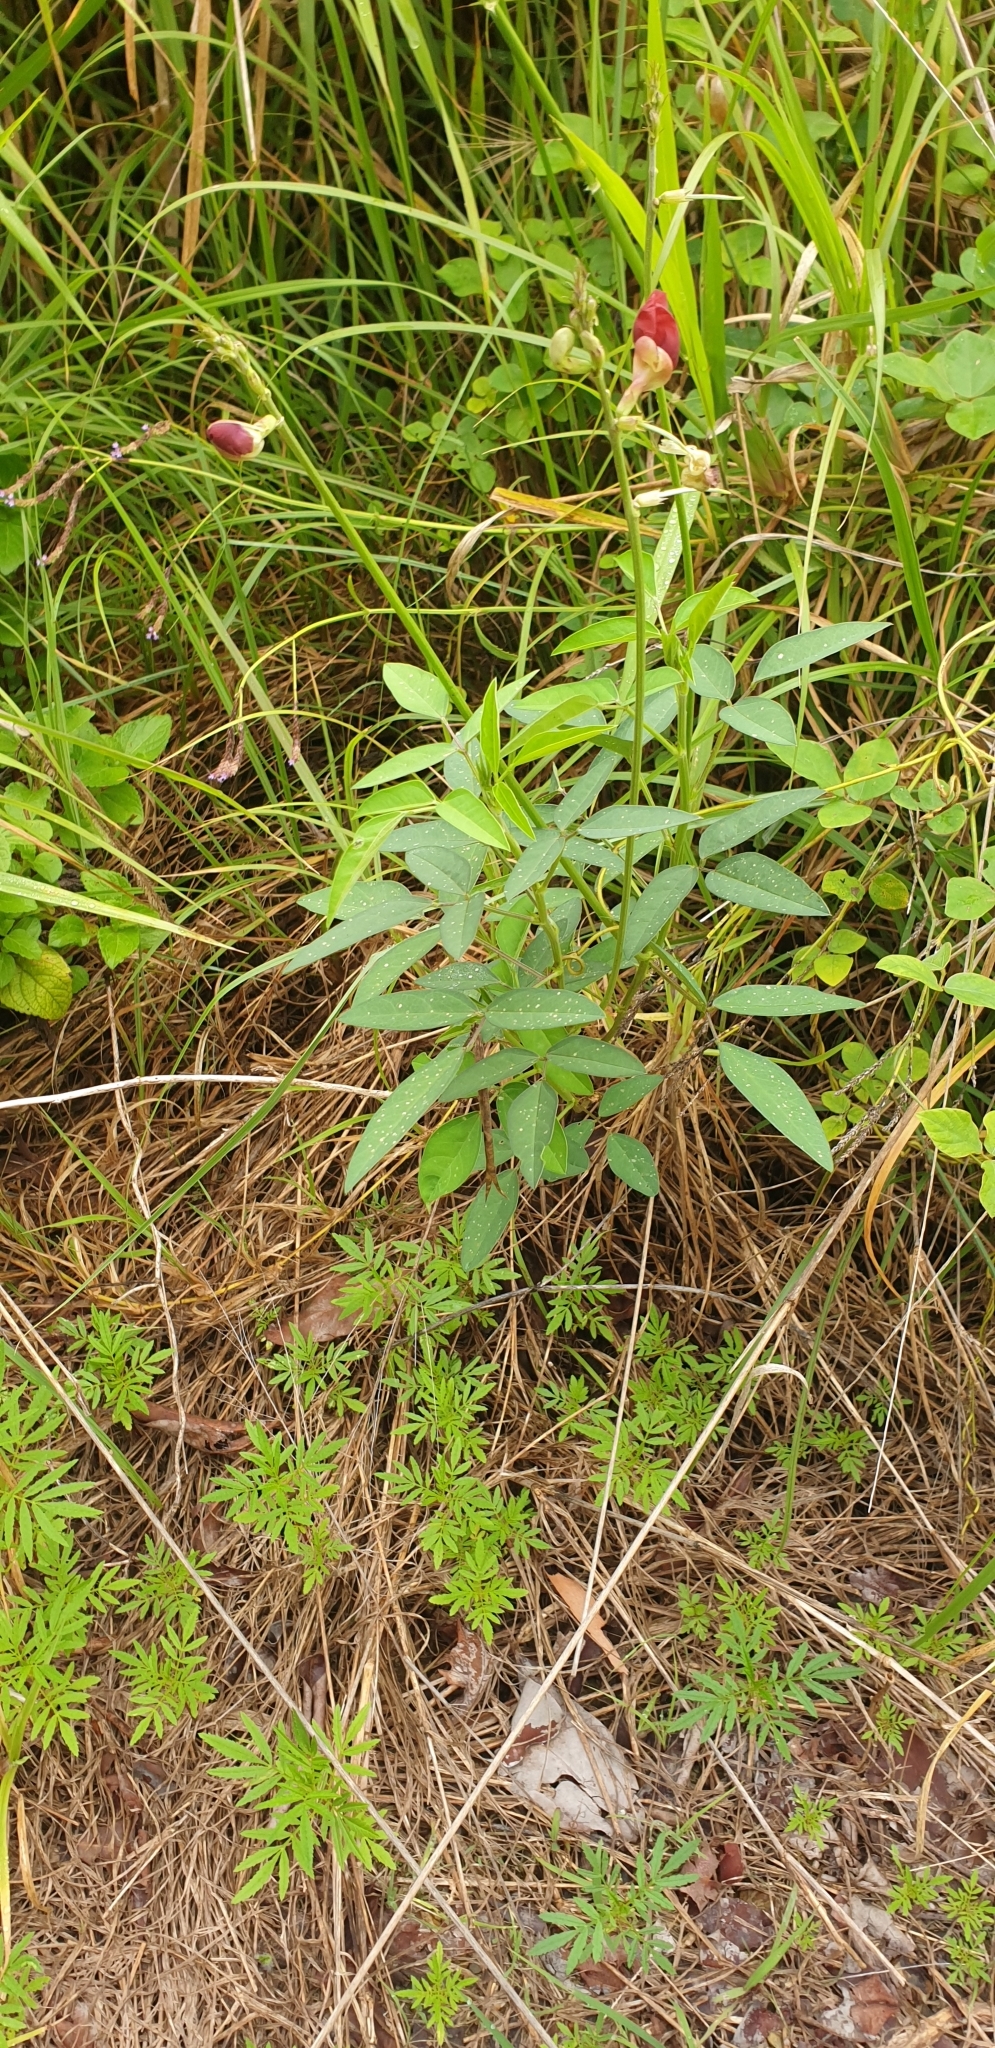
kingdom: Plantae
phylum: Tracheophyta
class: Magnoliopsida
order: Fabales
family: Fabaceae
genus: Macroptilium
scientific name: Macroptilium lathyroides
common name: Wild bushbean
